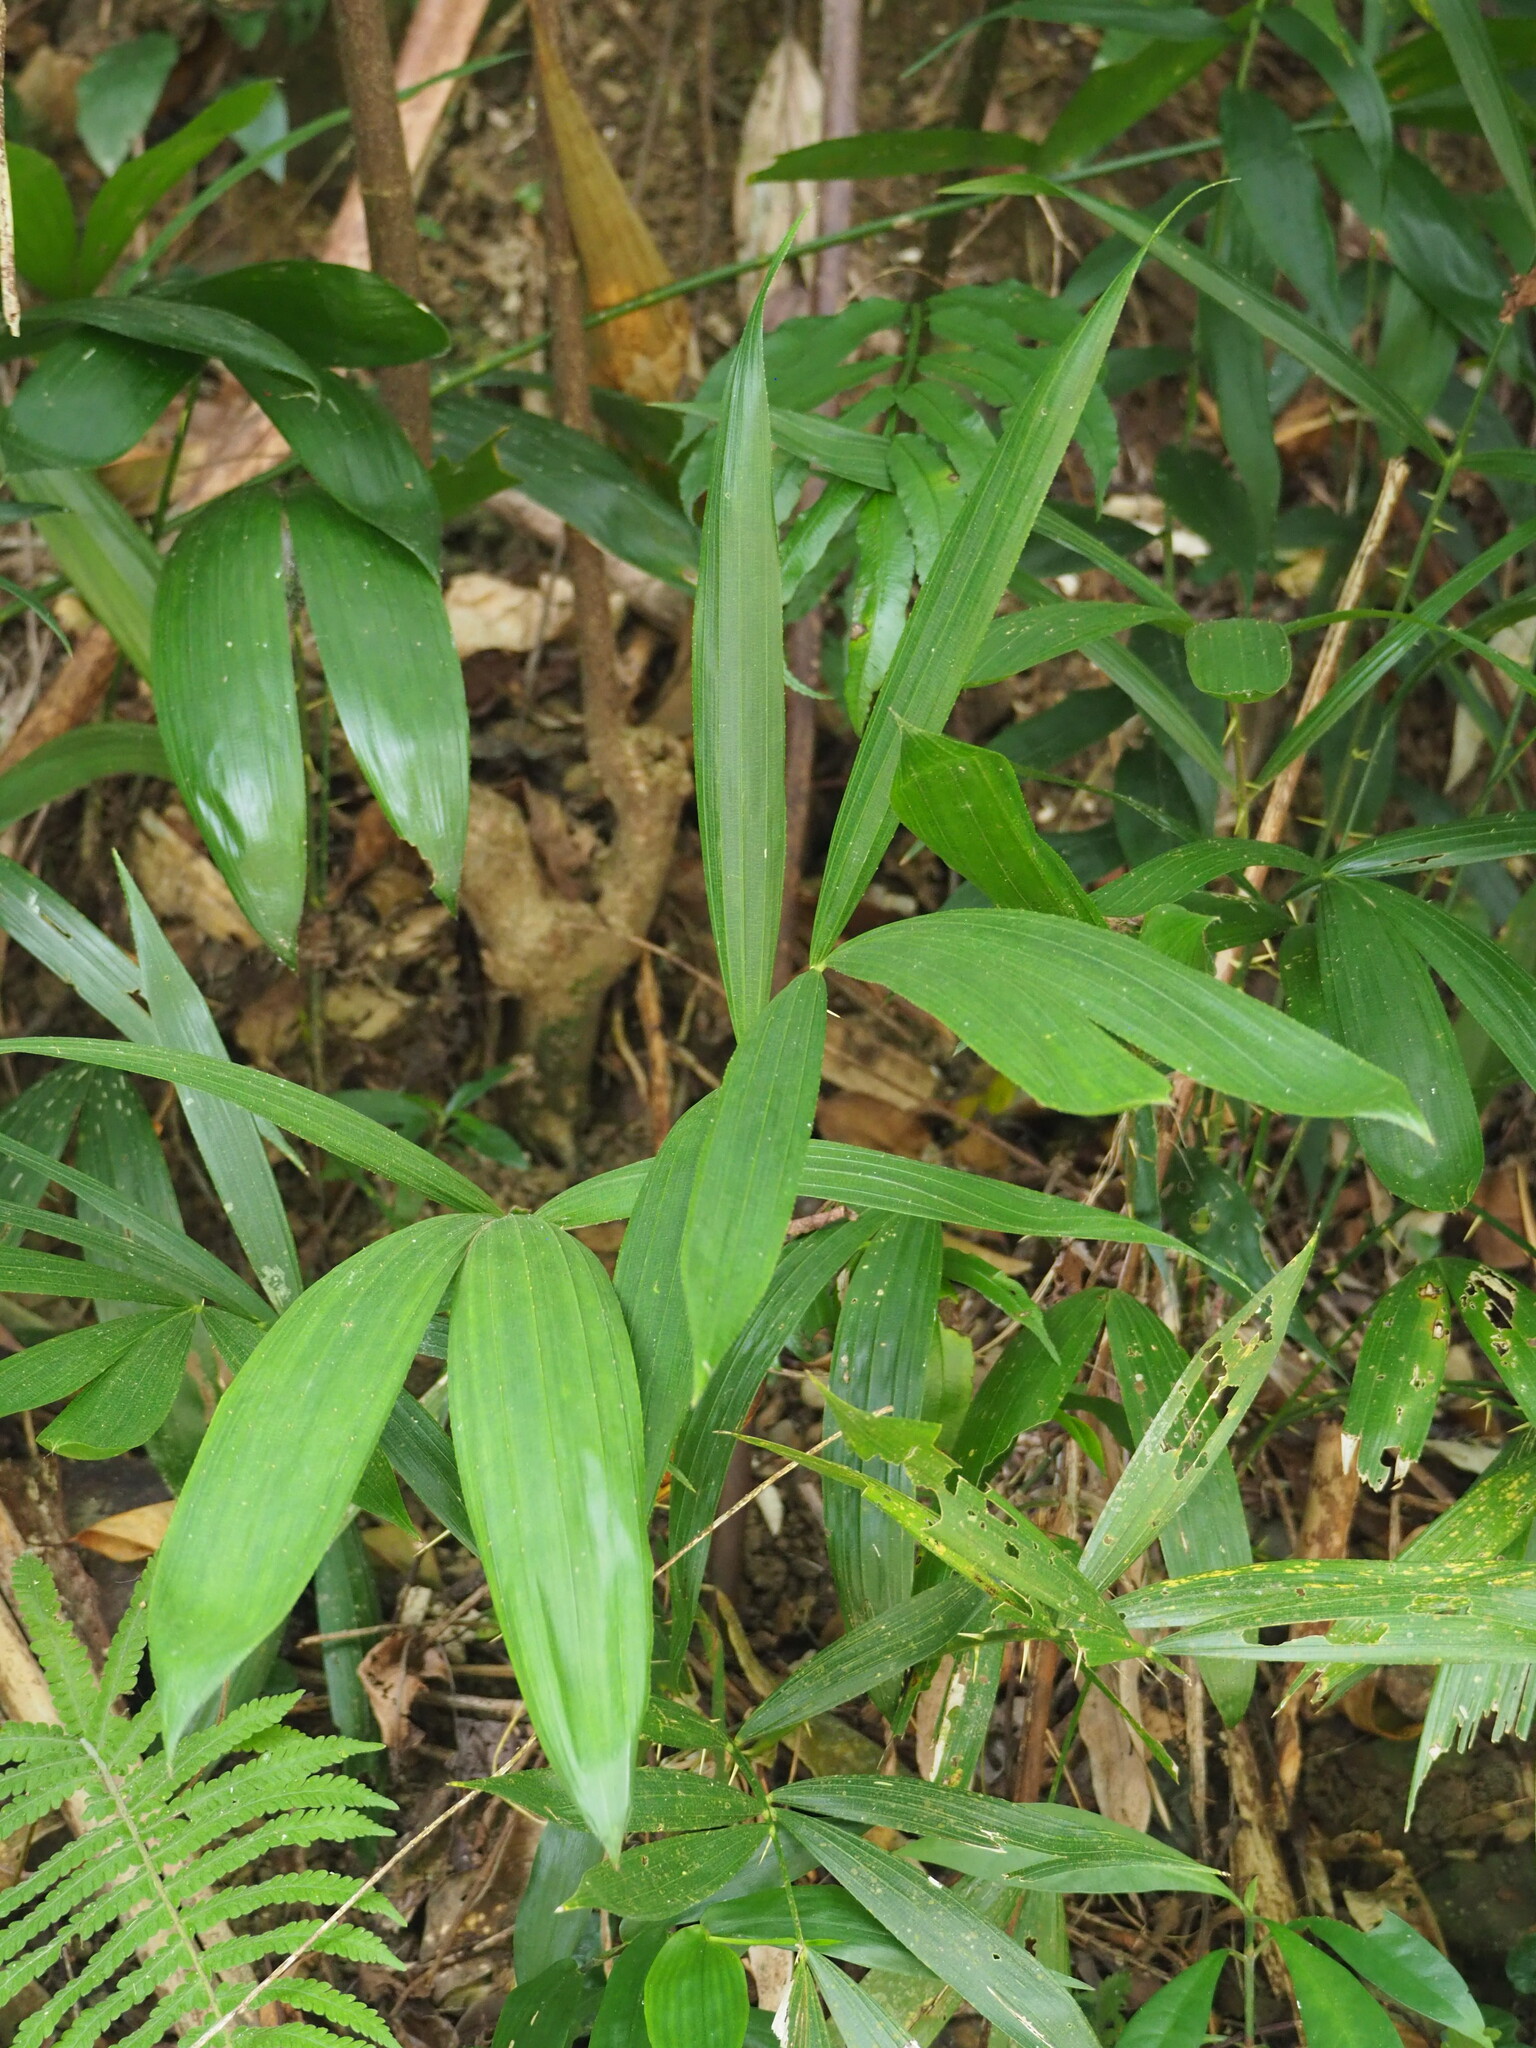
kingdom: Plantae
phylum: Tracheophyta
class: Liliopsida
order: Arecales
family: Arecaceae
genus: Calamus
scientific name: Calamus formosanus
